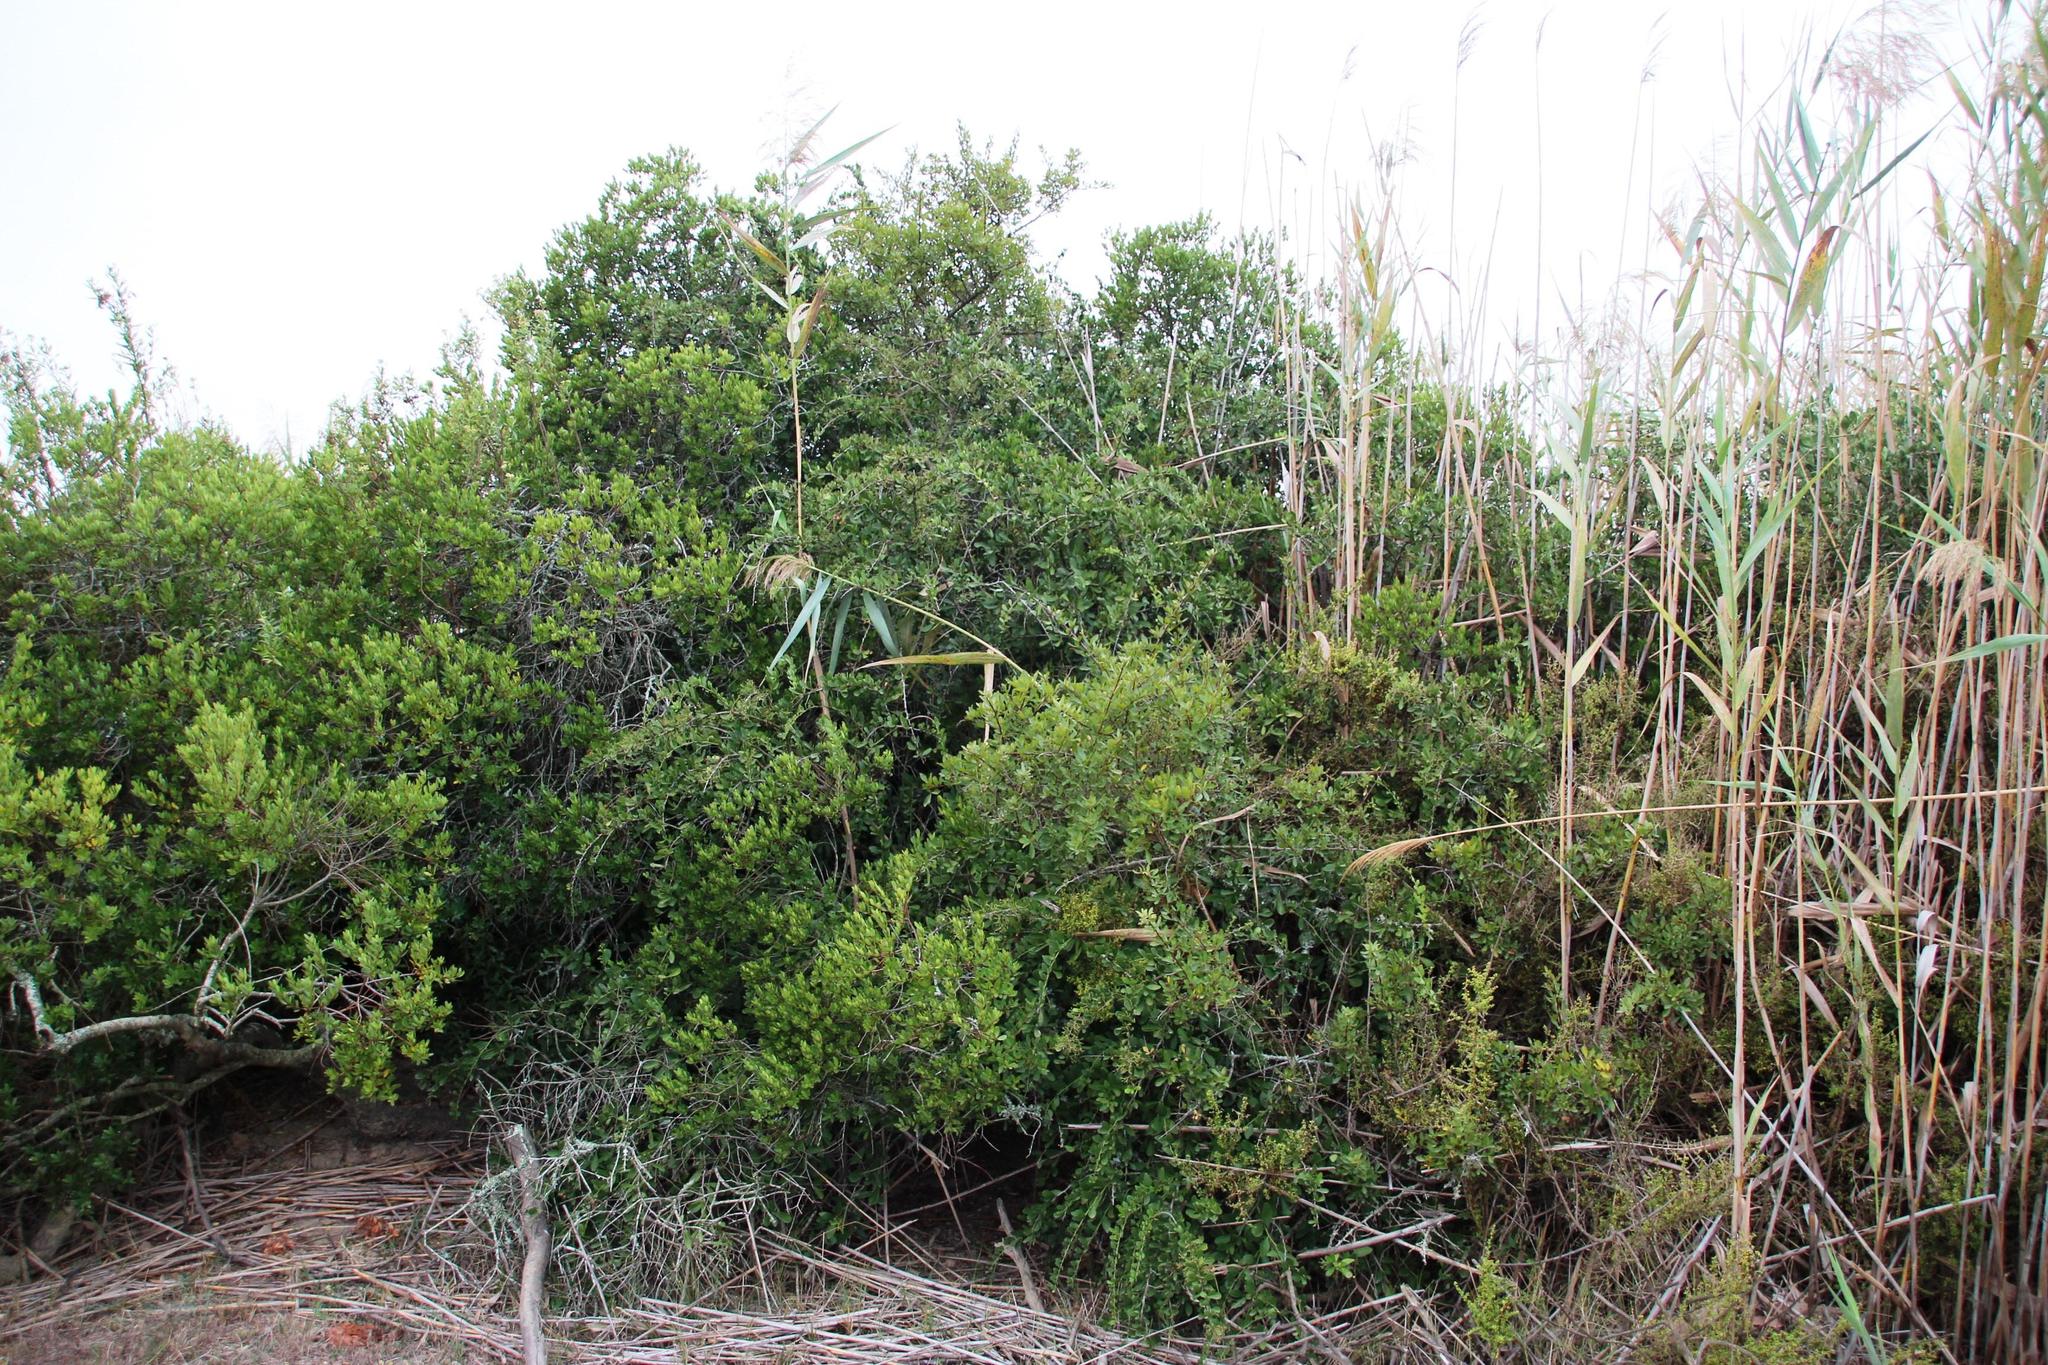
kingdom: Plantae
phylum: Tracheophyta
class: Magnoliopsida
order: Celastrales
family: Celastraceae
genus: Gymnosporia
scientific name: Gymnosporia buxifolia
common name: Common spike-thorn
